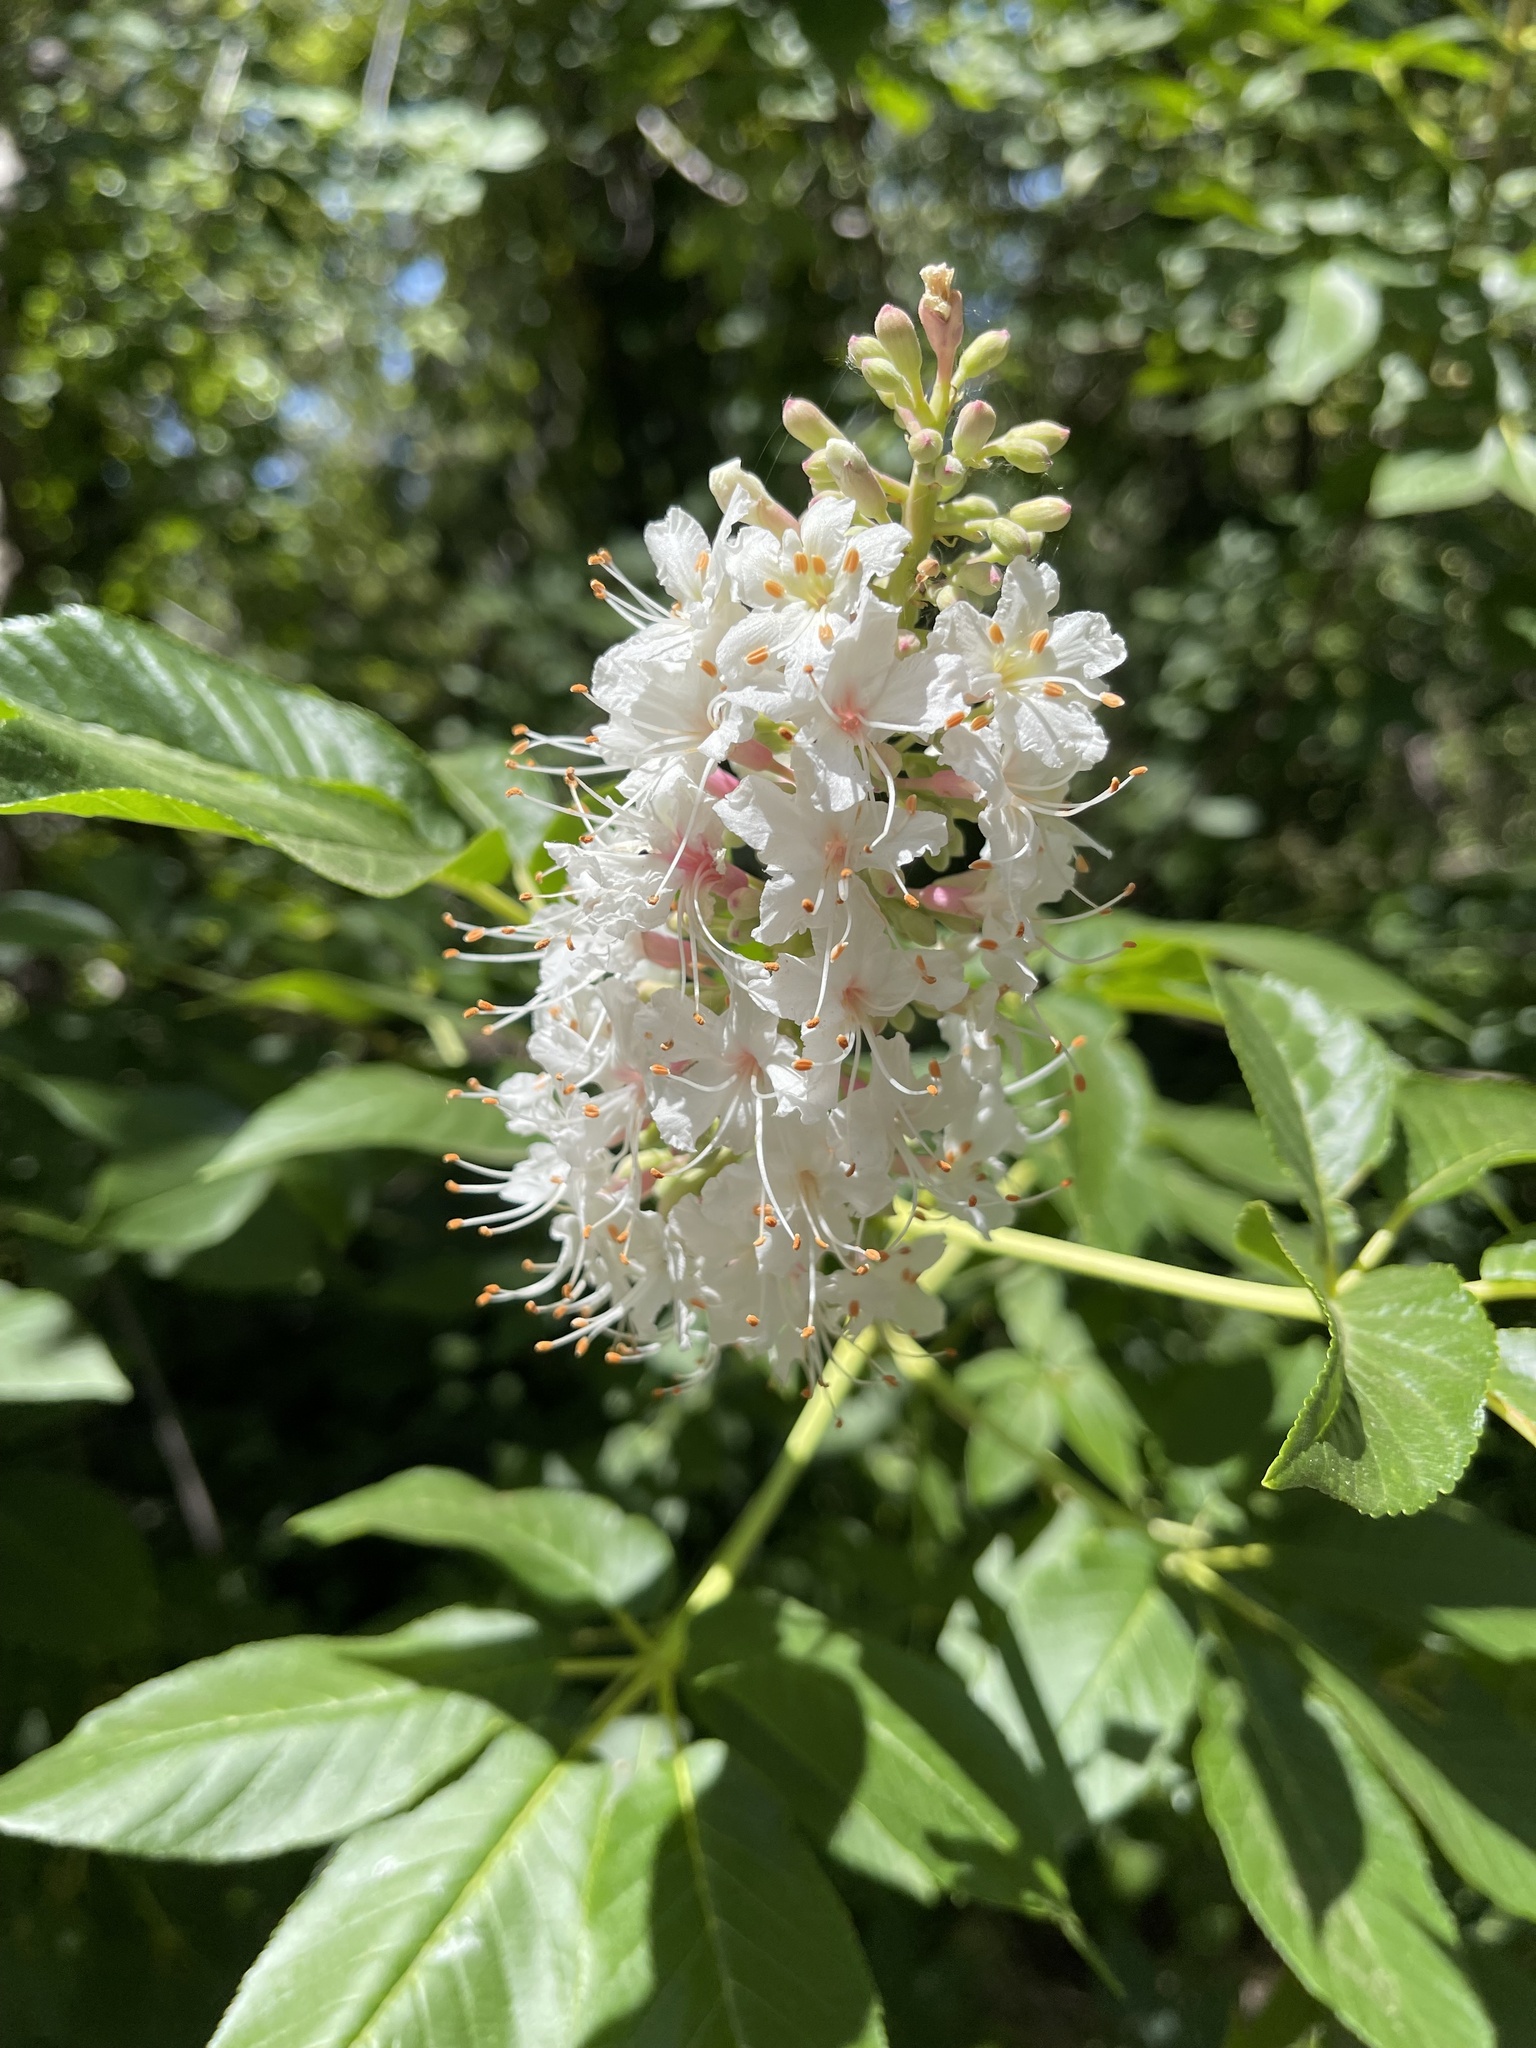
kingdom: Plantae
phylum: Tracheophyta
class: Magnoliopsida
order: Sapindales
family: Sapindaceae
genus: Aesculus
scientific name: Aesculus californica
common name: California buckeye
